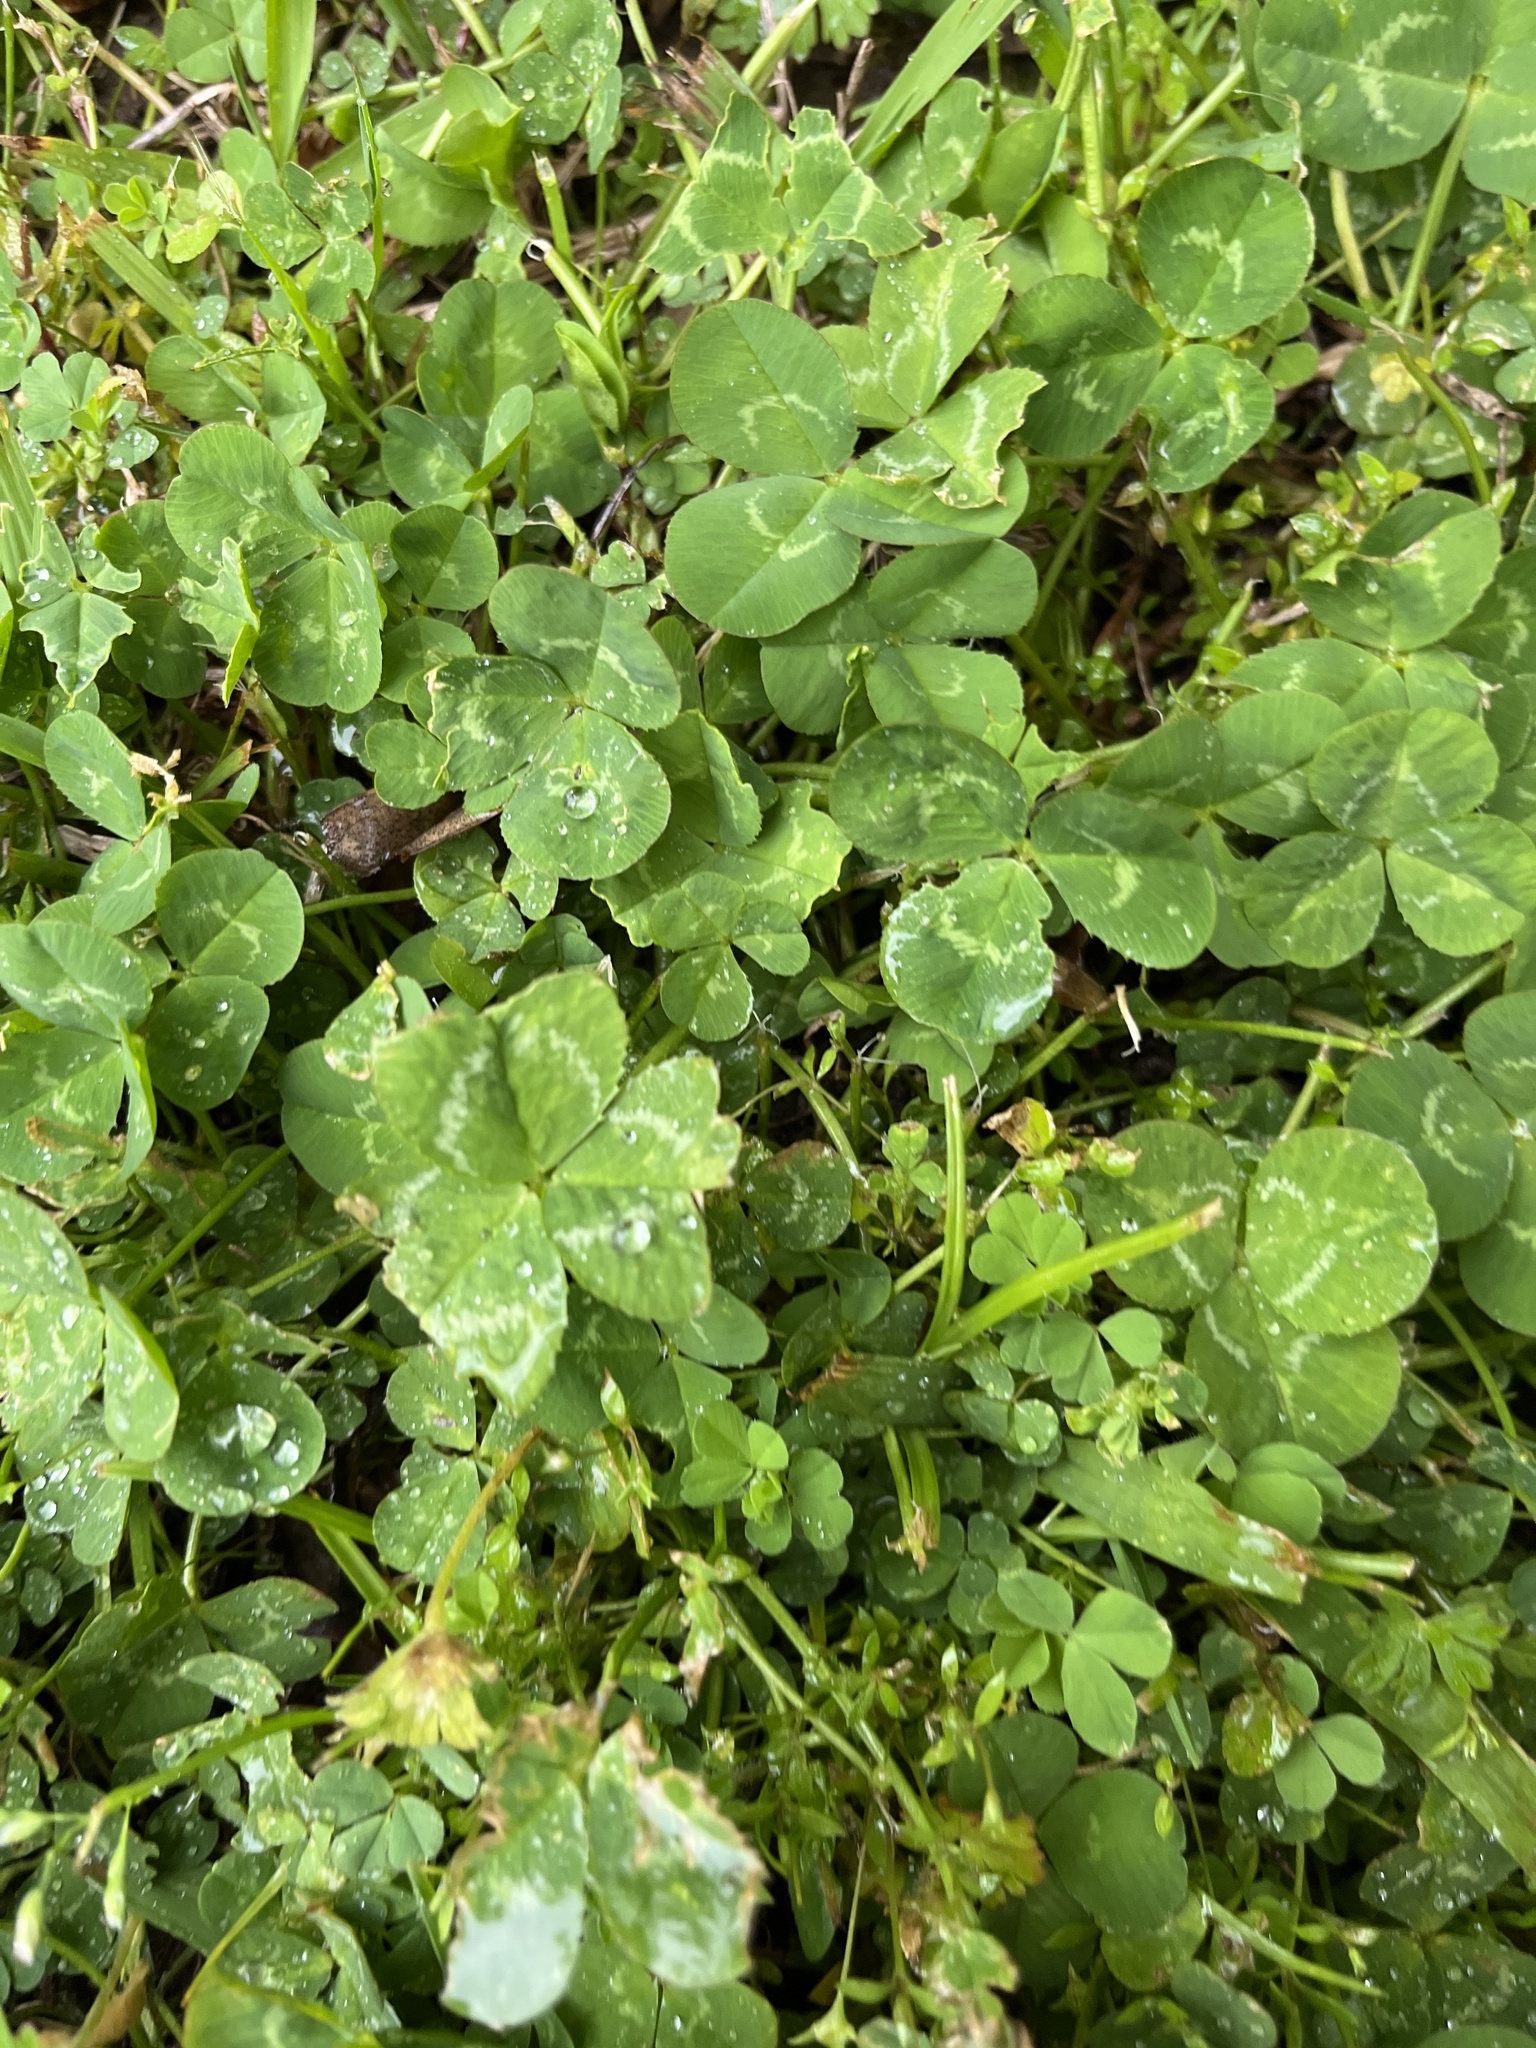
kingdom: Plantae
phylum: Tracheophyta
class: Magnoliopsida
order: Fabales
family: Fabaceae
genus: Trifolium
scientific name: Trifolium repens
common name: White clover
